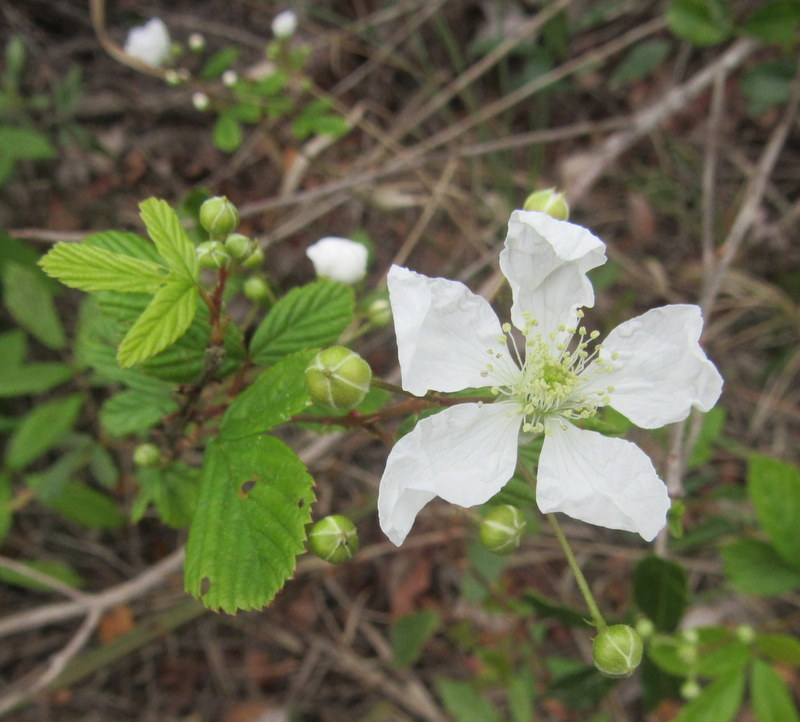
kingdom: Plantae
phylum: Tracheophyta
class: Magnoliopsida
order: Rosales
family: Rosaceae
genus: Rubus
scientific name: Rubus cuneifolius
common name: American bramble
